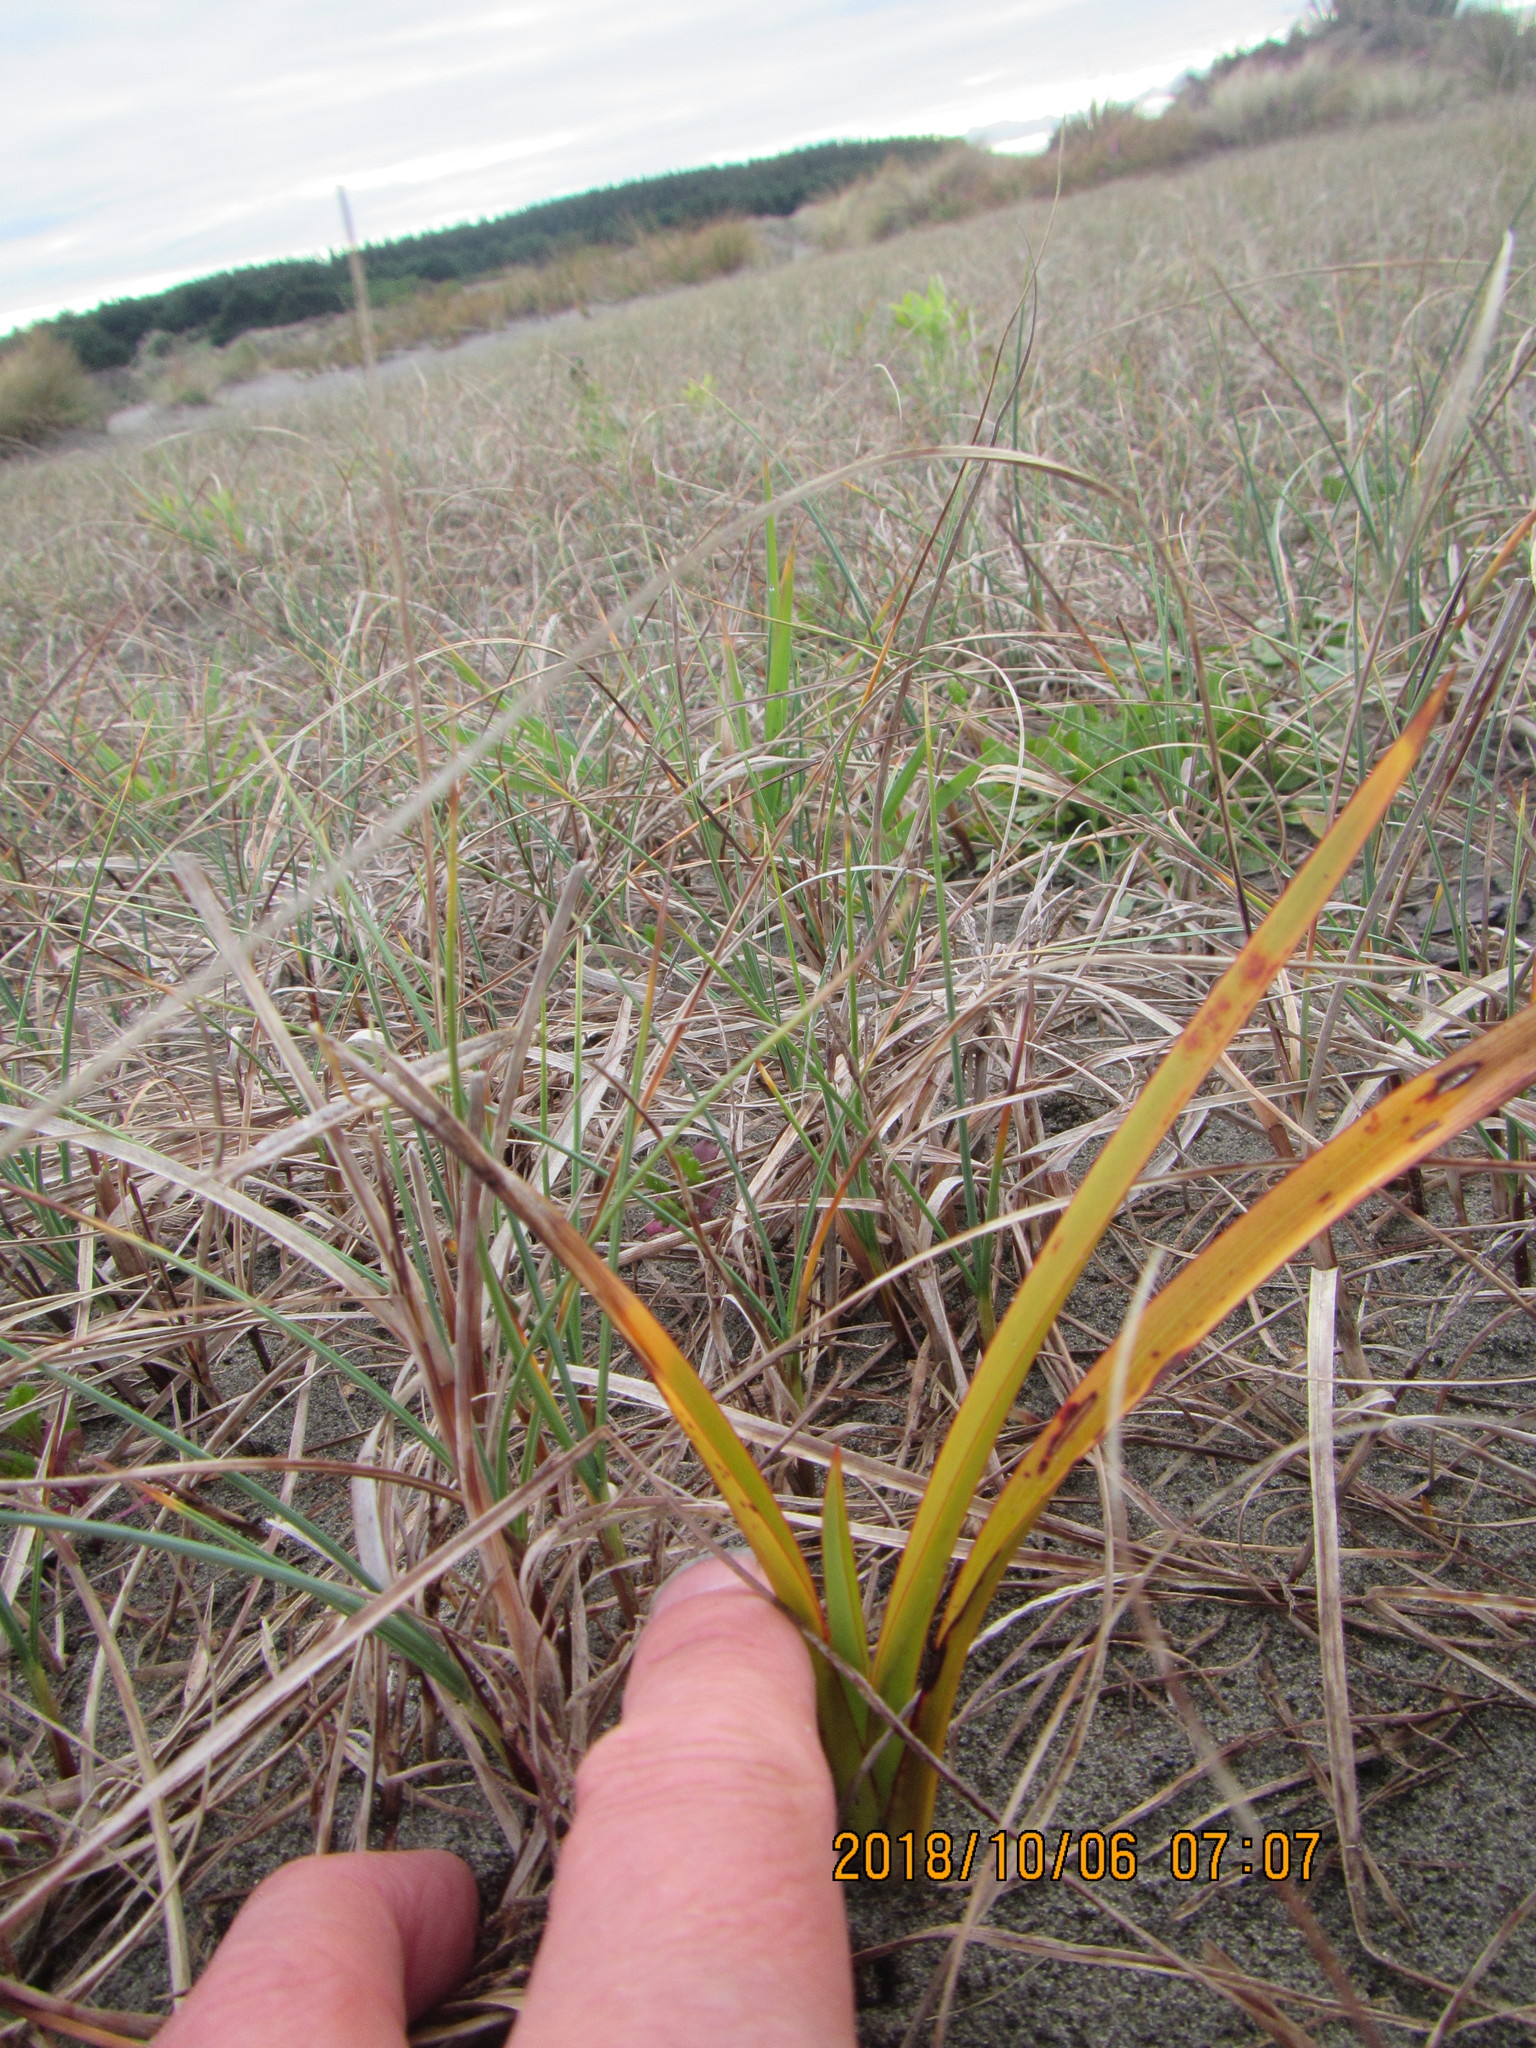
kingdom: Plantae
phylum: Tracheophyta
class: Liliopsida
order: Asparagales
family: Asphodelaceae
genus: Phormium
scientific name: Phormium tenax
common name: New zealand flax
